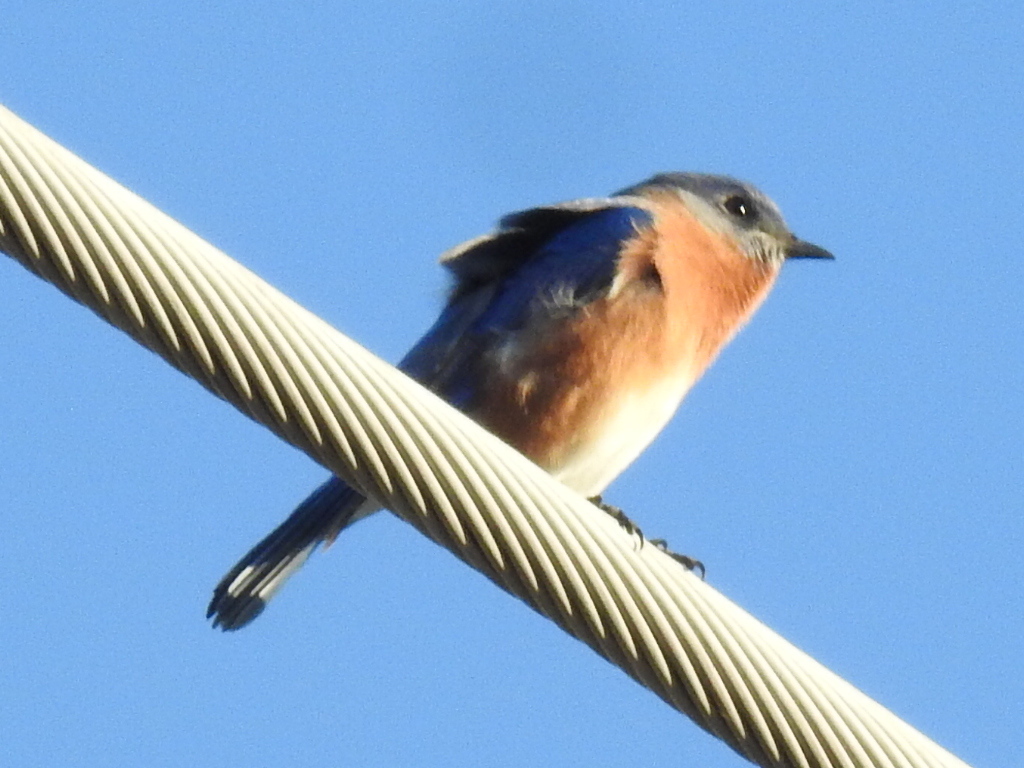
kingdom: Animalia
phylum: Chordata
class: Aves
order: Passeriformes
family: Turdidae
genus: Sialia
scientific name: Sialia sialis
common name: Eastern bluebird
